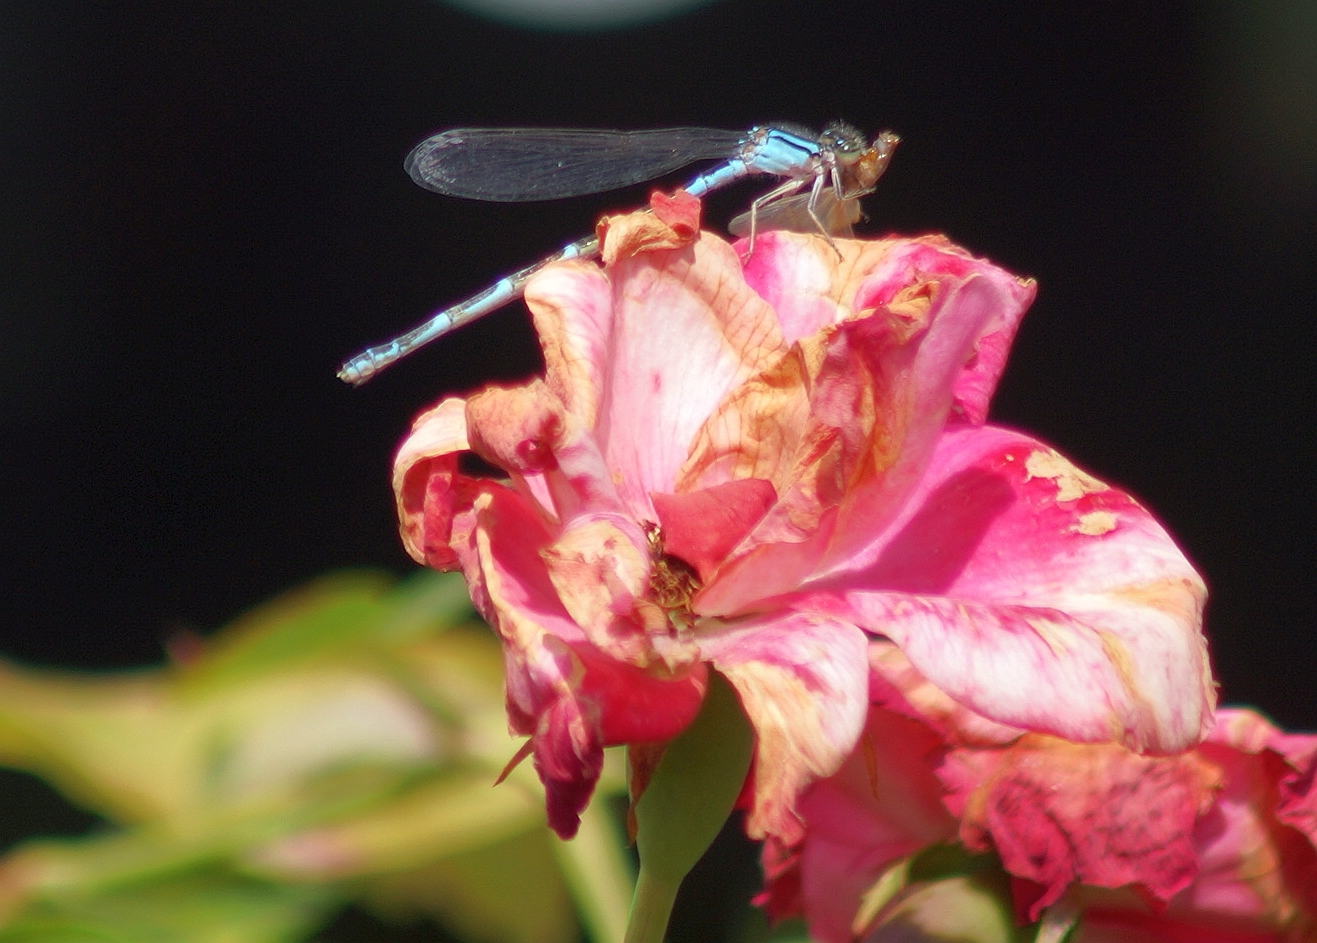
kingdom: Animalia
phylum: Arthropoda
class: Insecta
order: Odonata
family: Coenagrionidae
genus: Enallagma
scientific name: Enallagma
